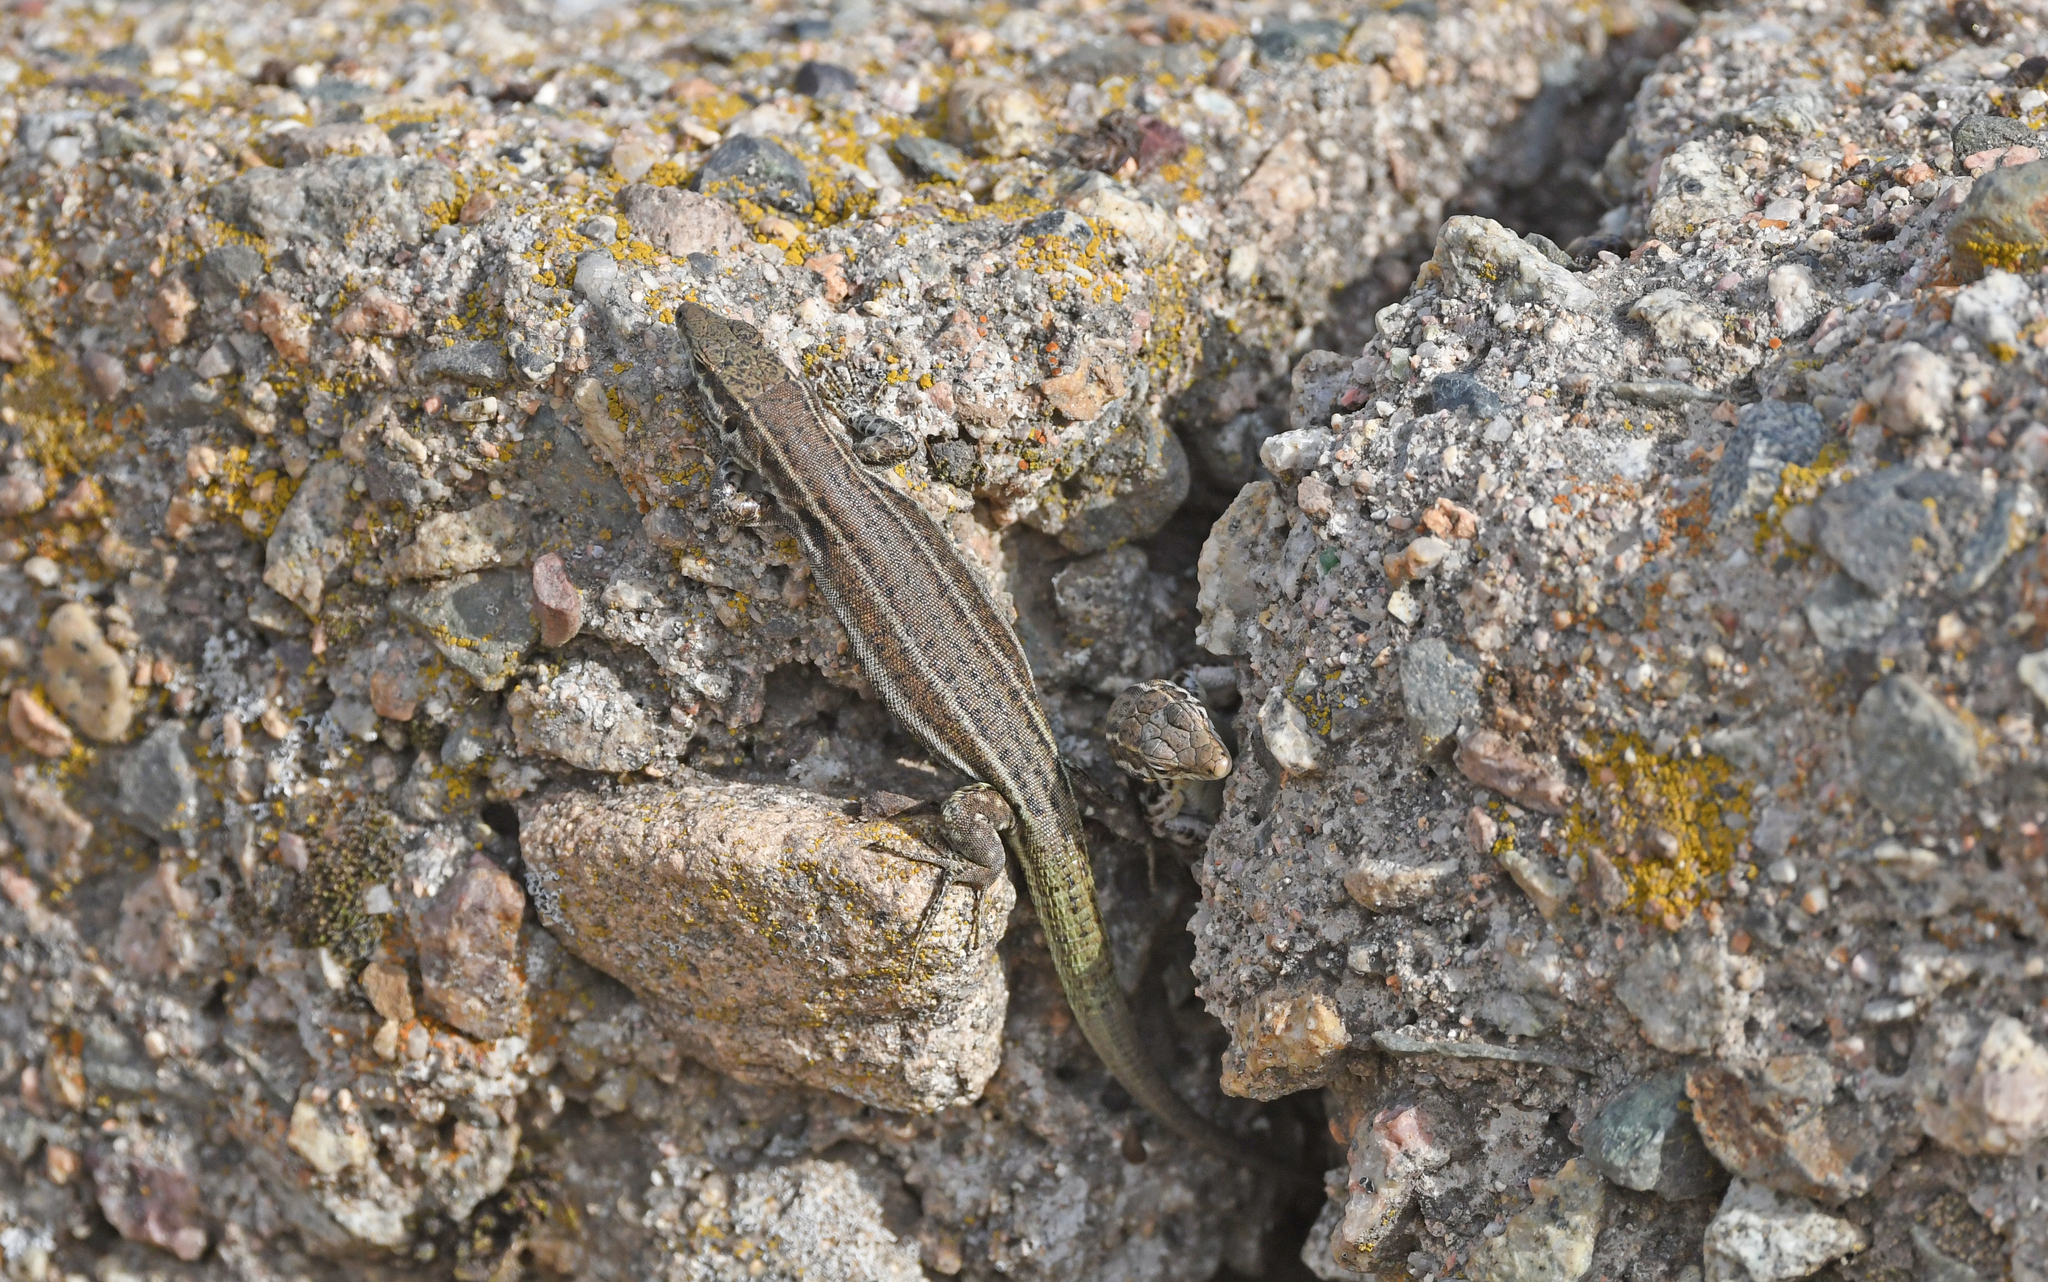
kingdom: Animalia
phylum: Chordata
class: Squamata
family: Lacertidae
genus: Podarcis
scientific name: Podarcis tiliguerta
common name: Tyrrhenian wall lizard
